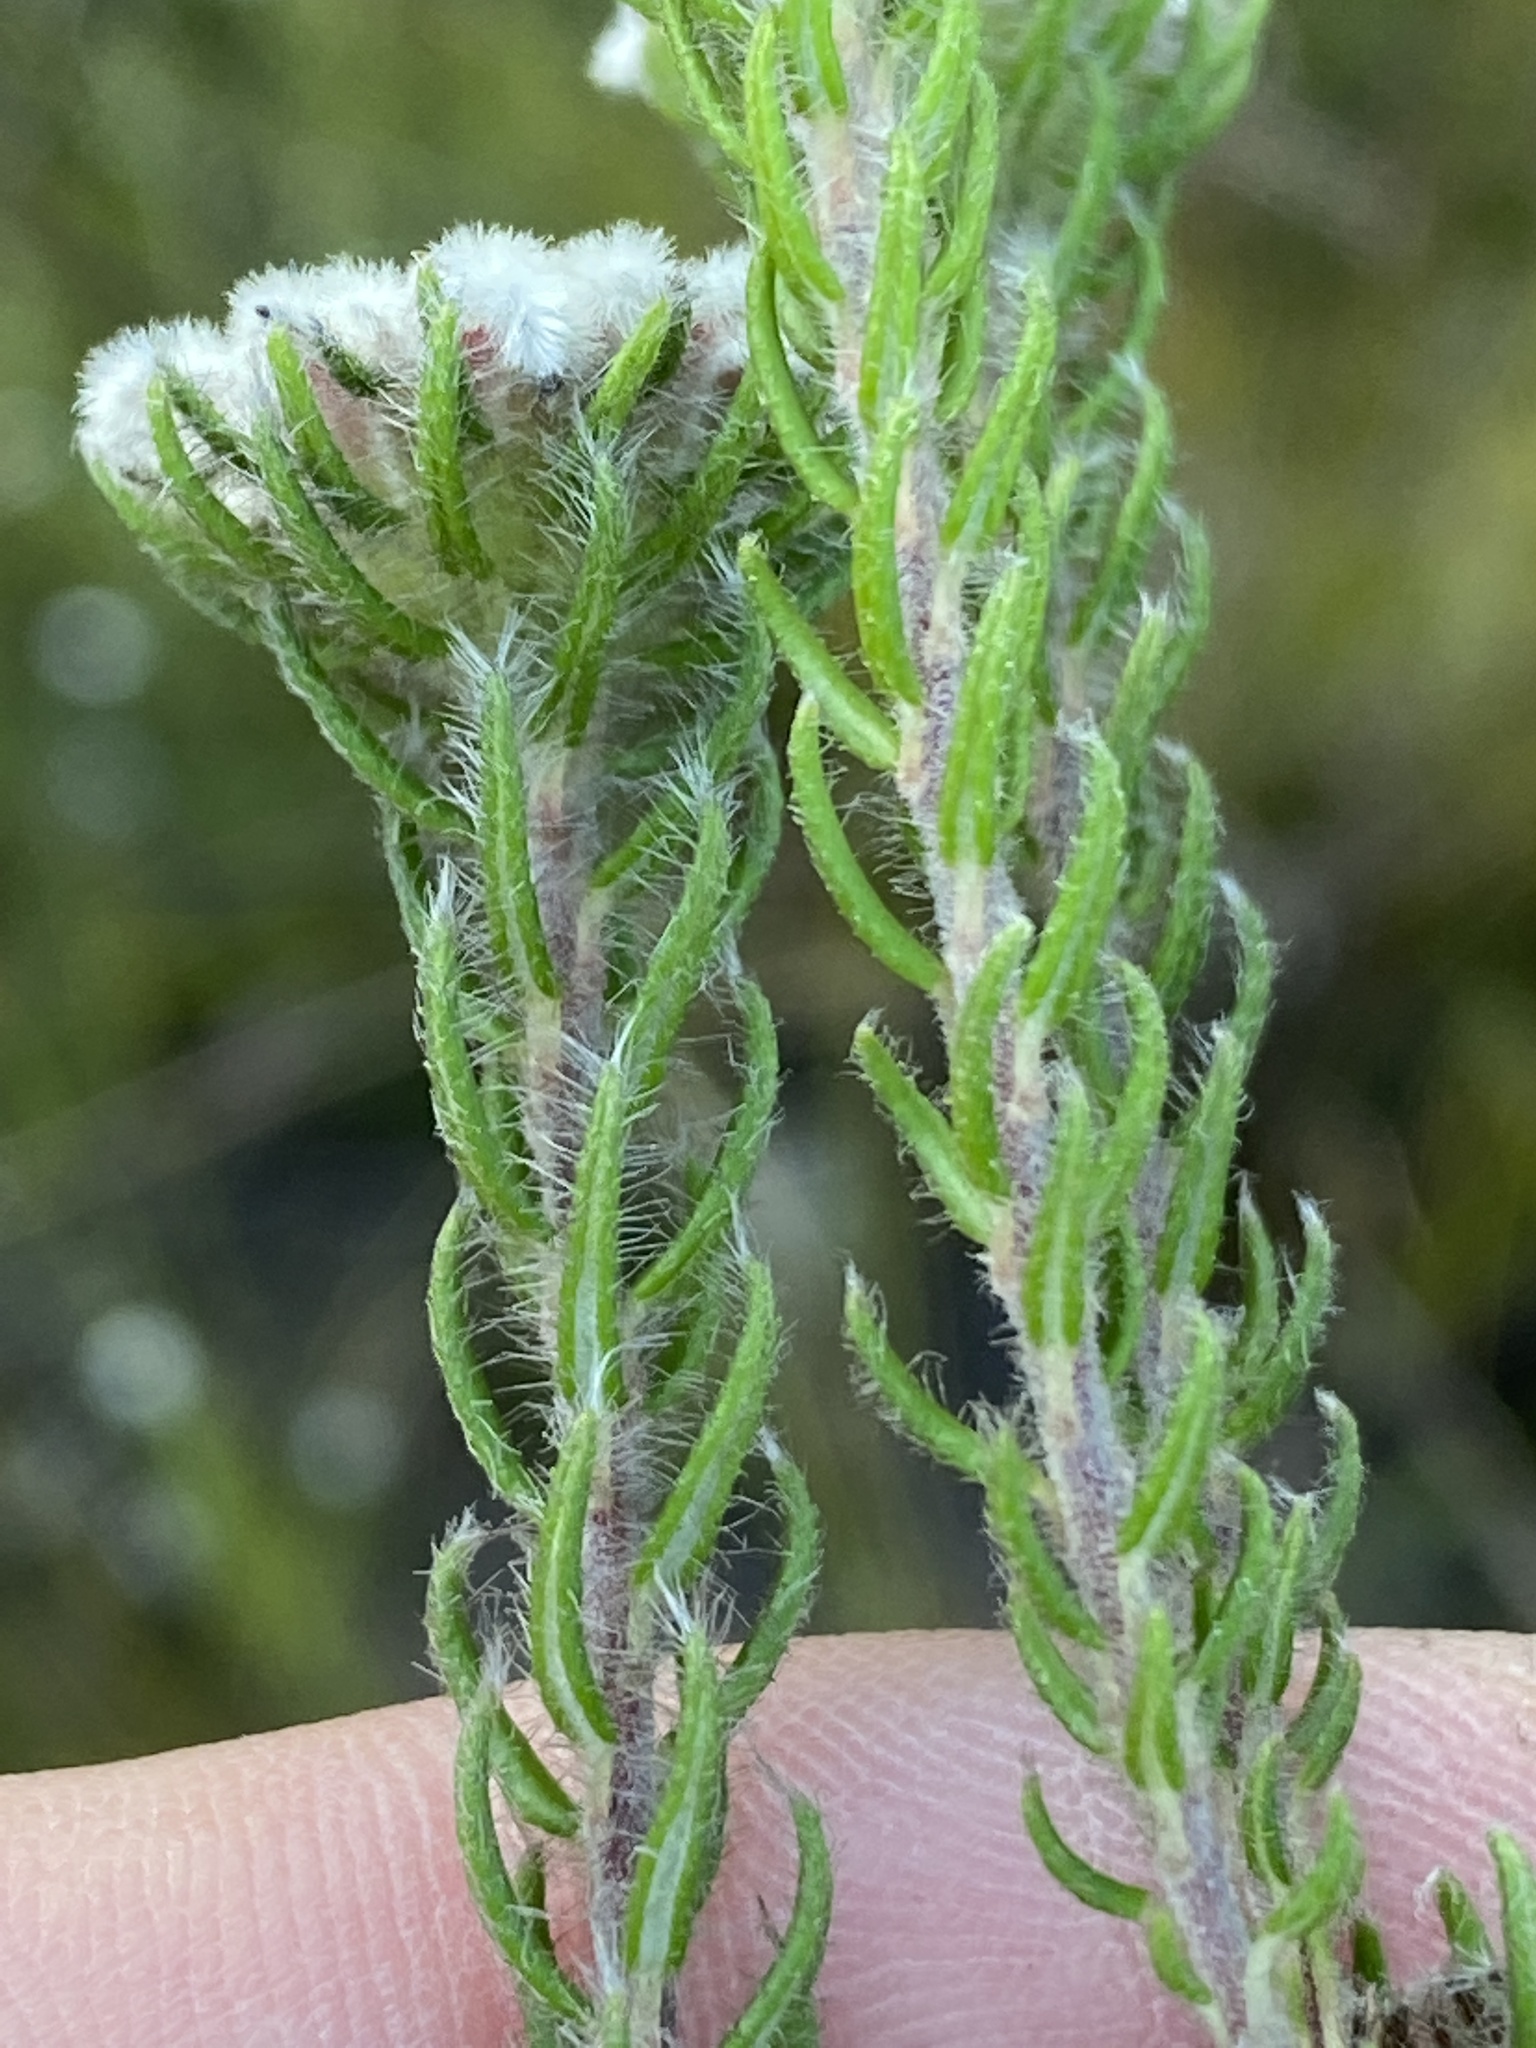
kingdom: Plantae
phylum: Tracheophyta
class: Magnoliopsida
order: Rosales
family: Rhamnaceae
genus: Phylica
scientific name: Phylica curvifolia
